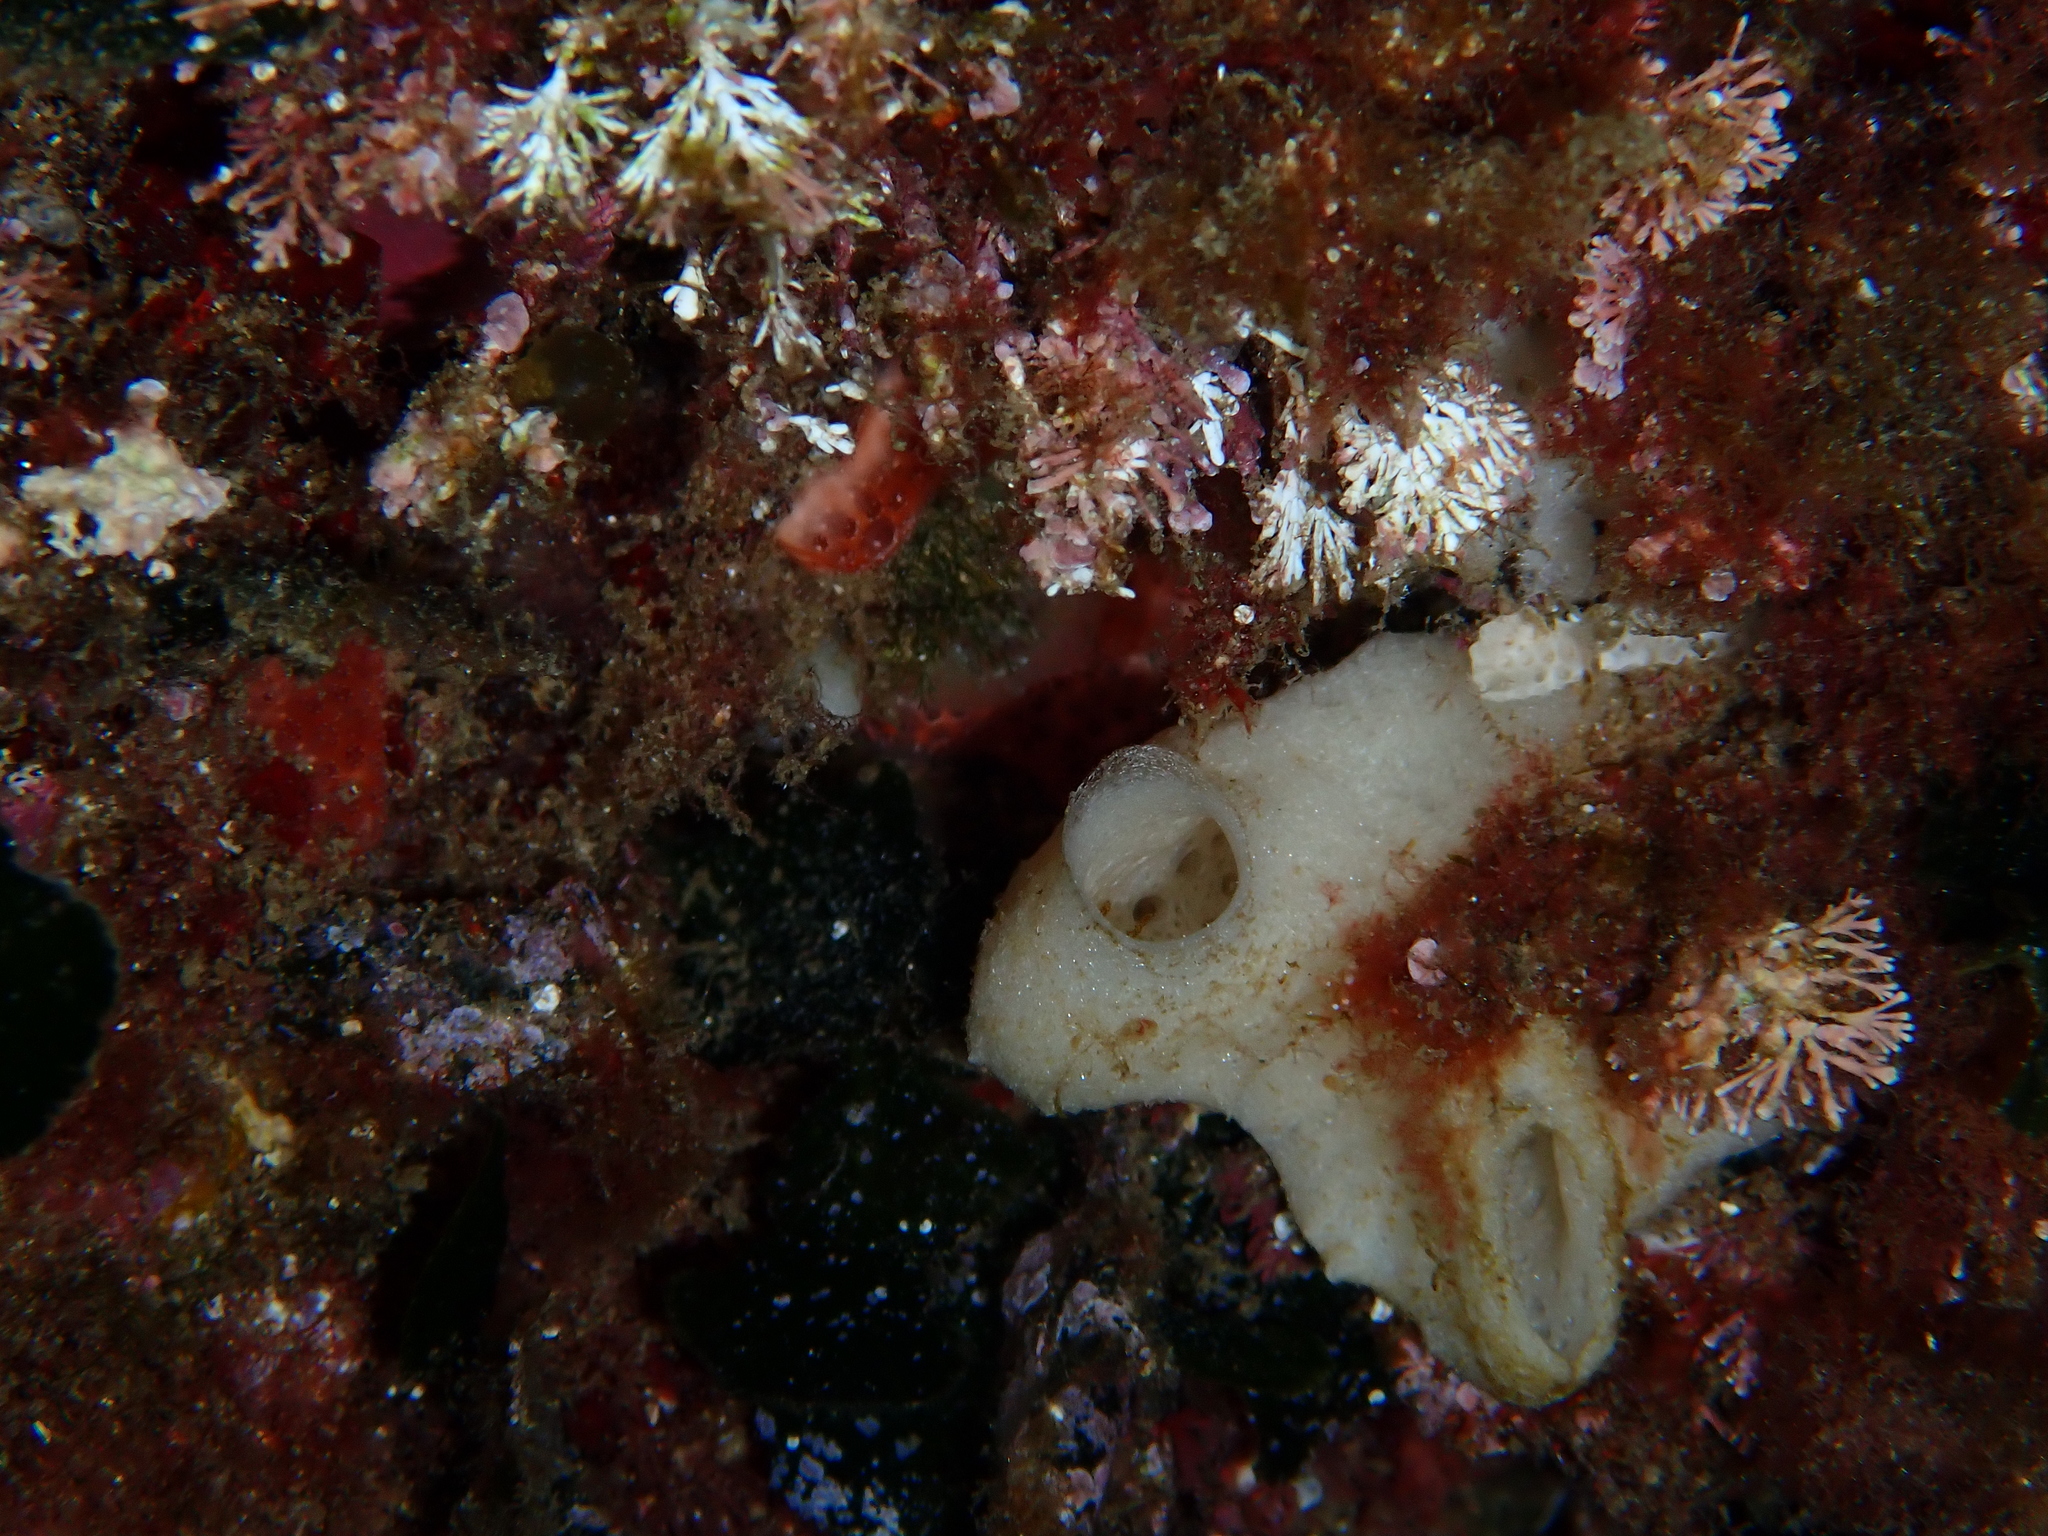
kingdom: Animalia
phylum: Porifera
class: Calcarea
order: Clathrinida
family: Leucettidae
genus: Leucetta
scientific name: Leucetta solida
